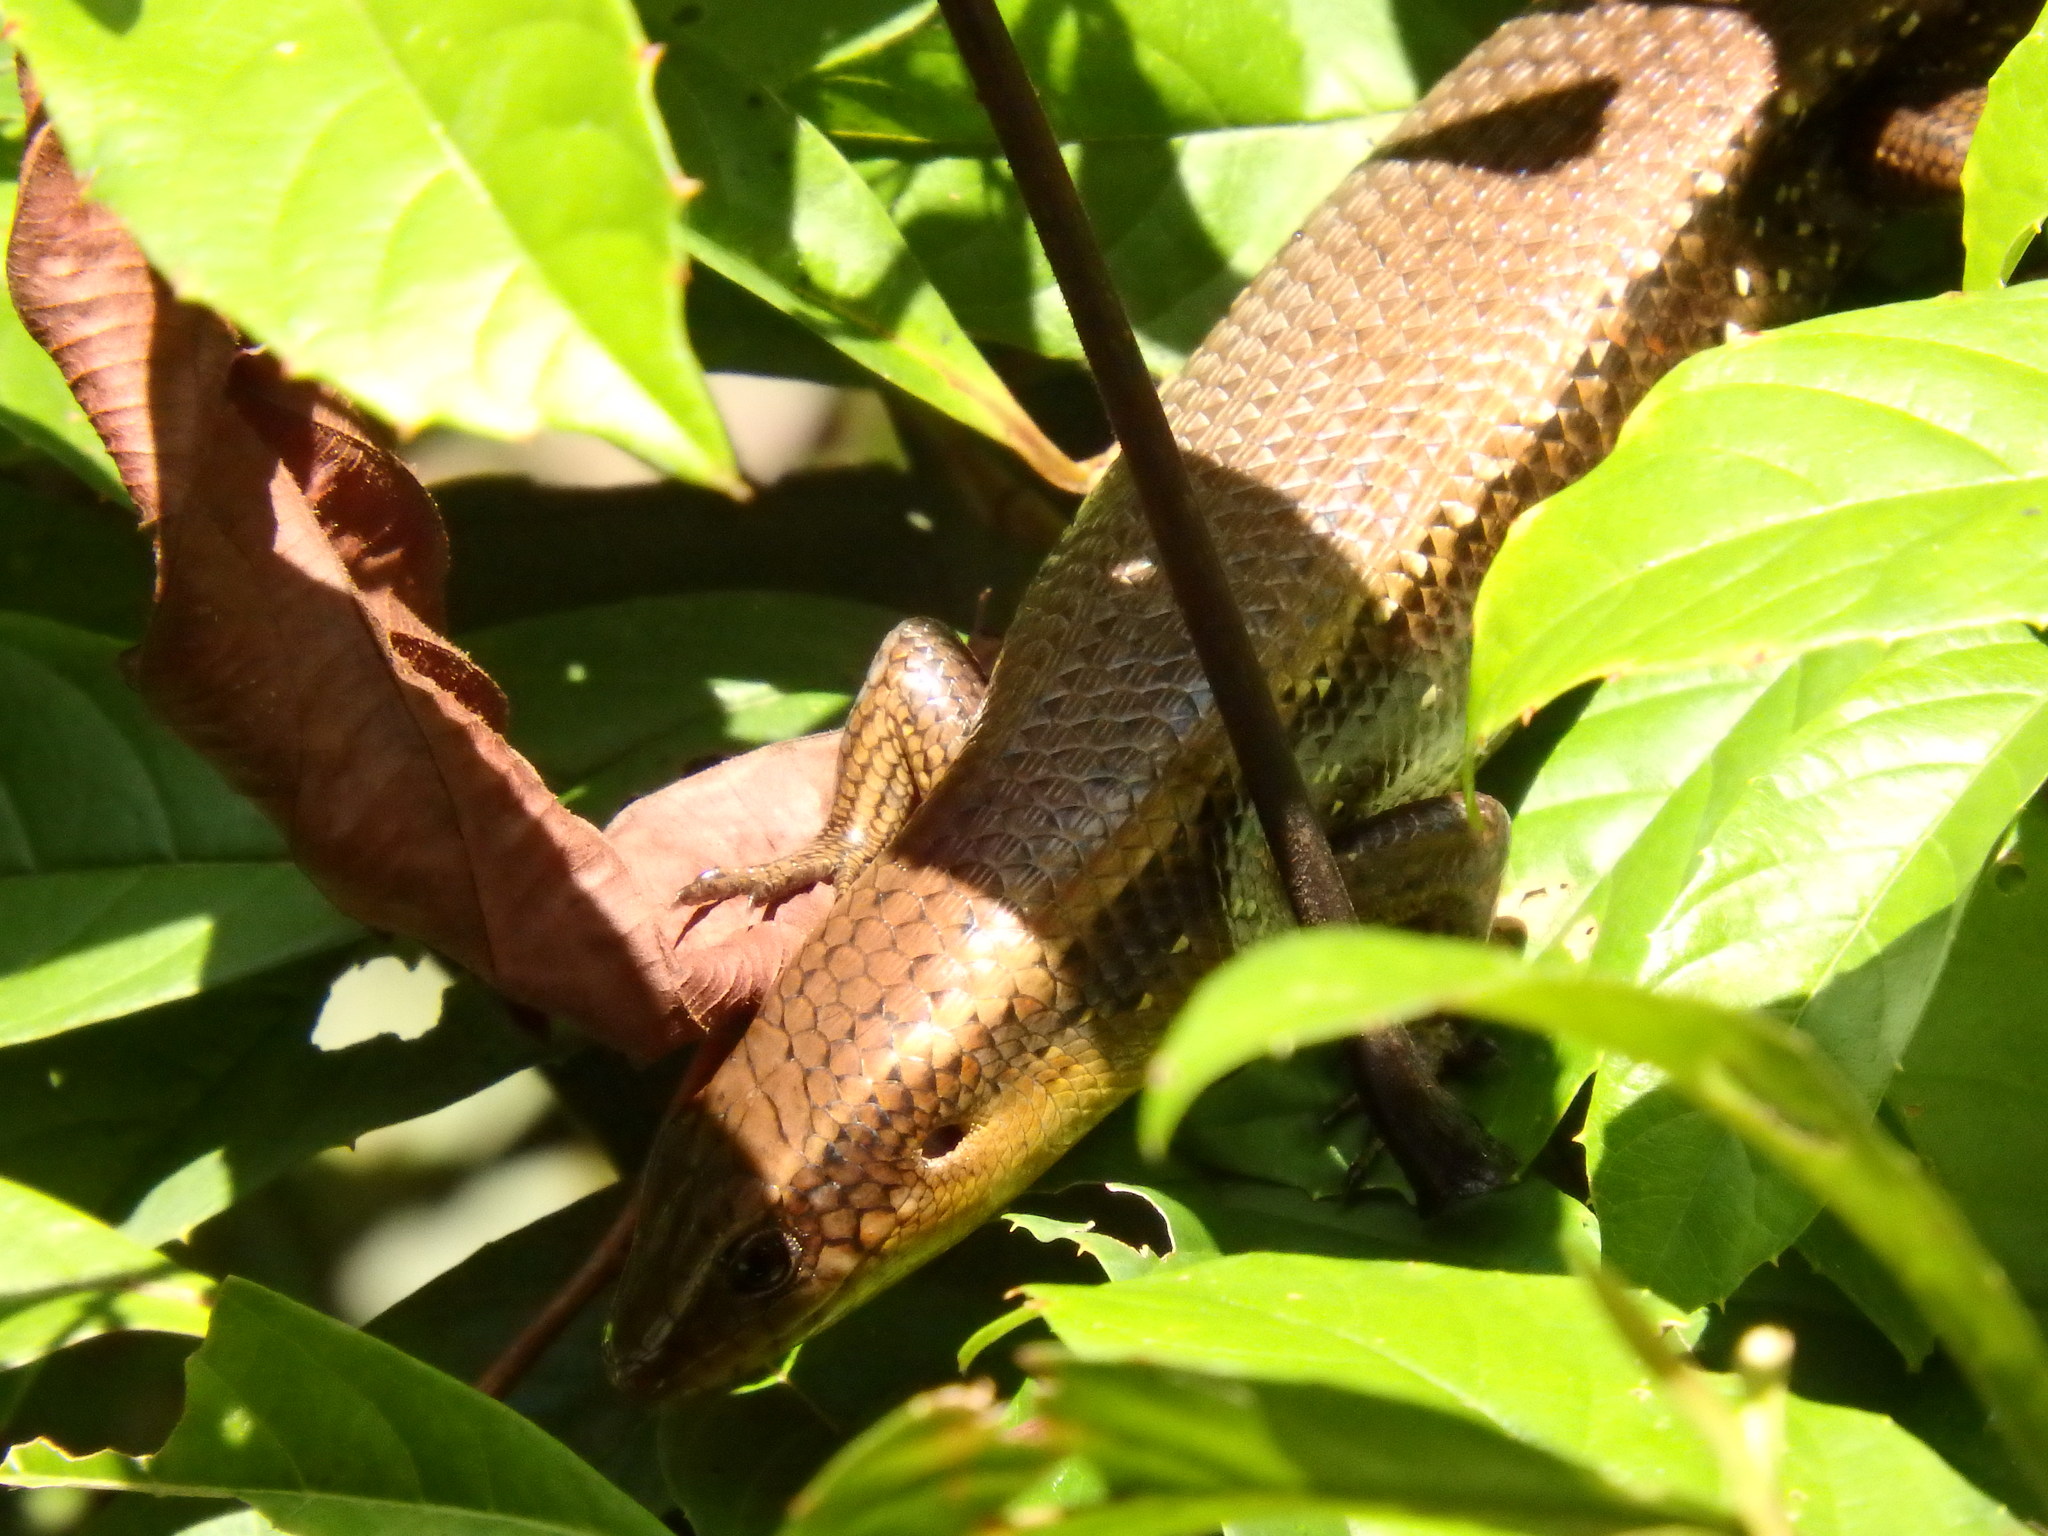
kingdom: Animalia
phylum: Chordata
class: Squamata
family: Scincidae
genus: Eutropis
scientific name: Eutropis multifasciata
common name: Common mabuya
